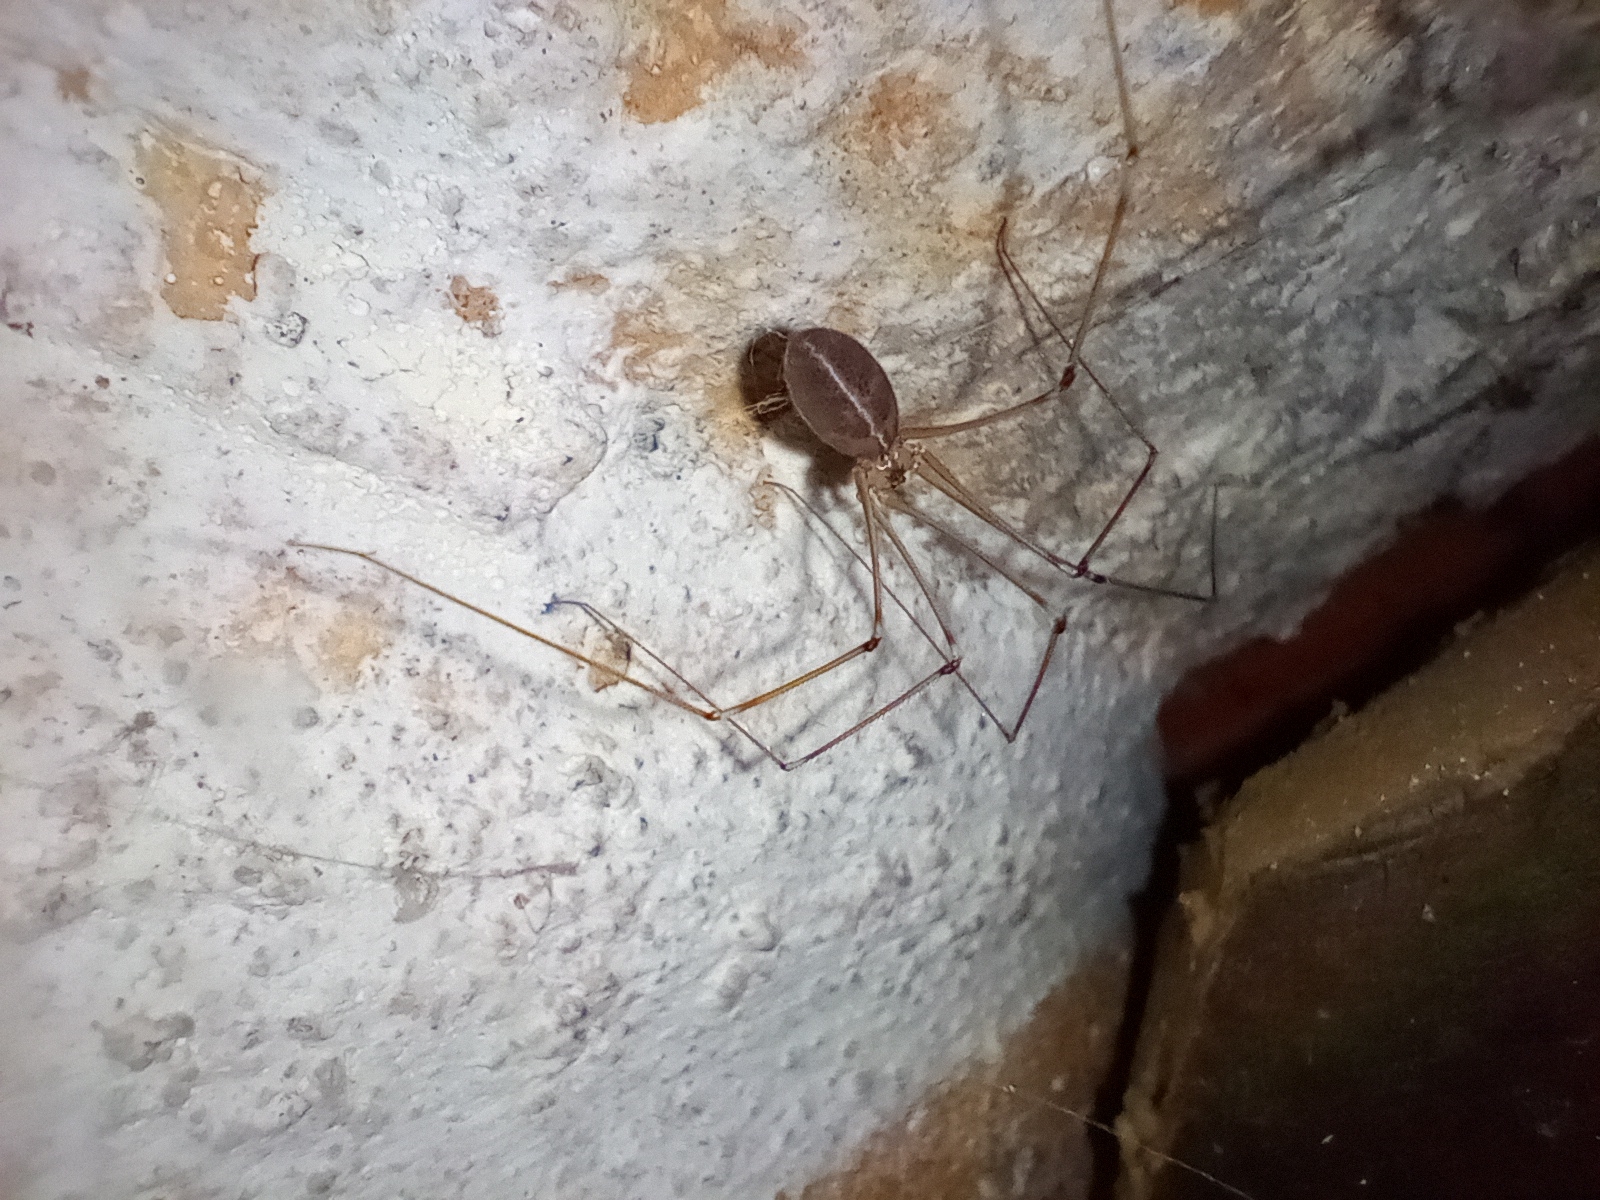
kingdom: Animalia
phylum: Arthropoda
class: Arachnida
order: Araneae
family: Pholcidae
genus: Pholcus
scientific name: Pholcus phalangioides
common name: Longbodied cellar spider
